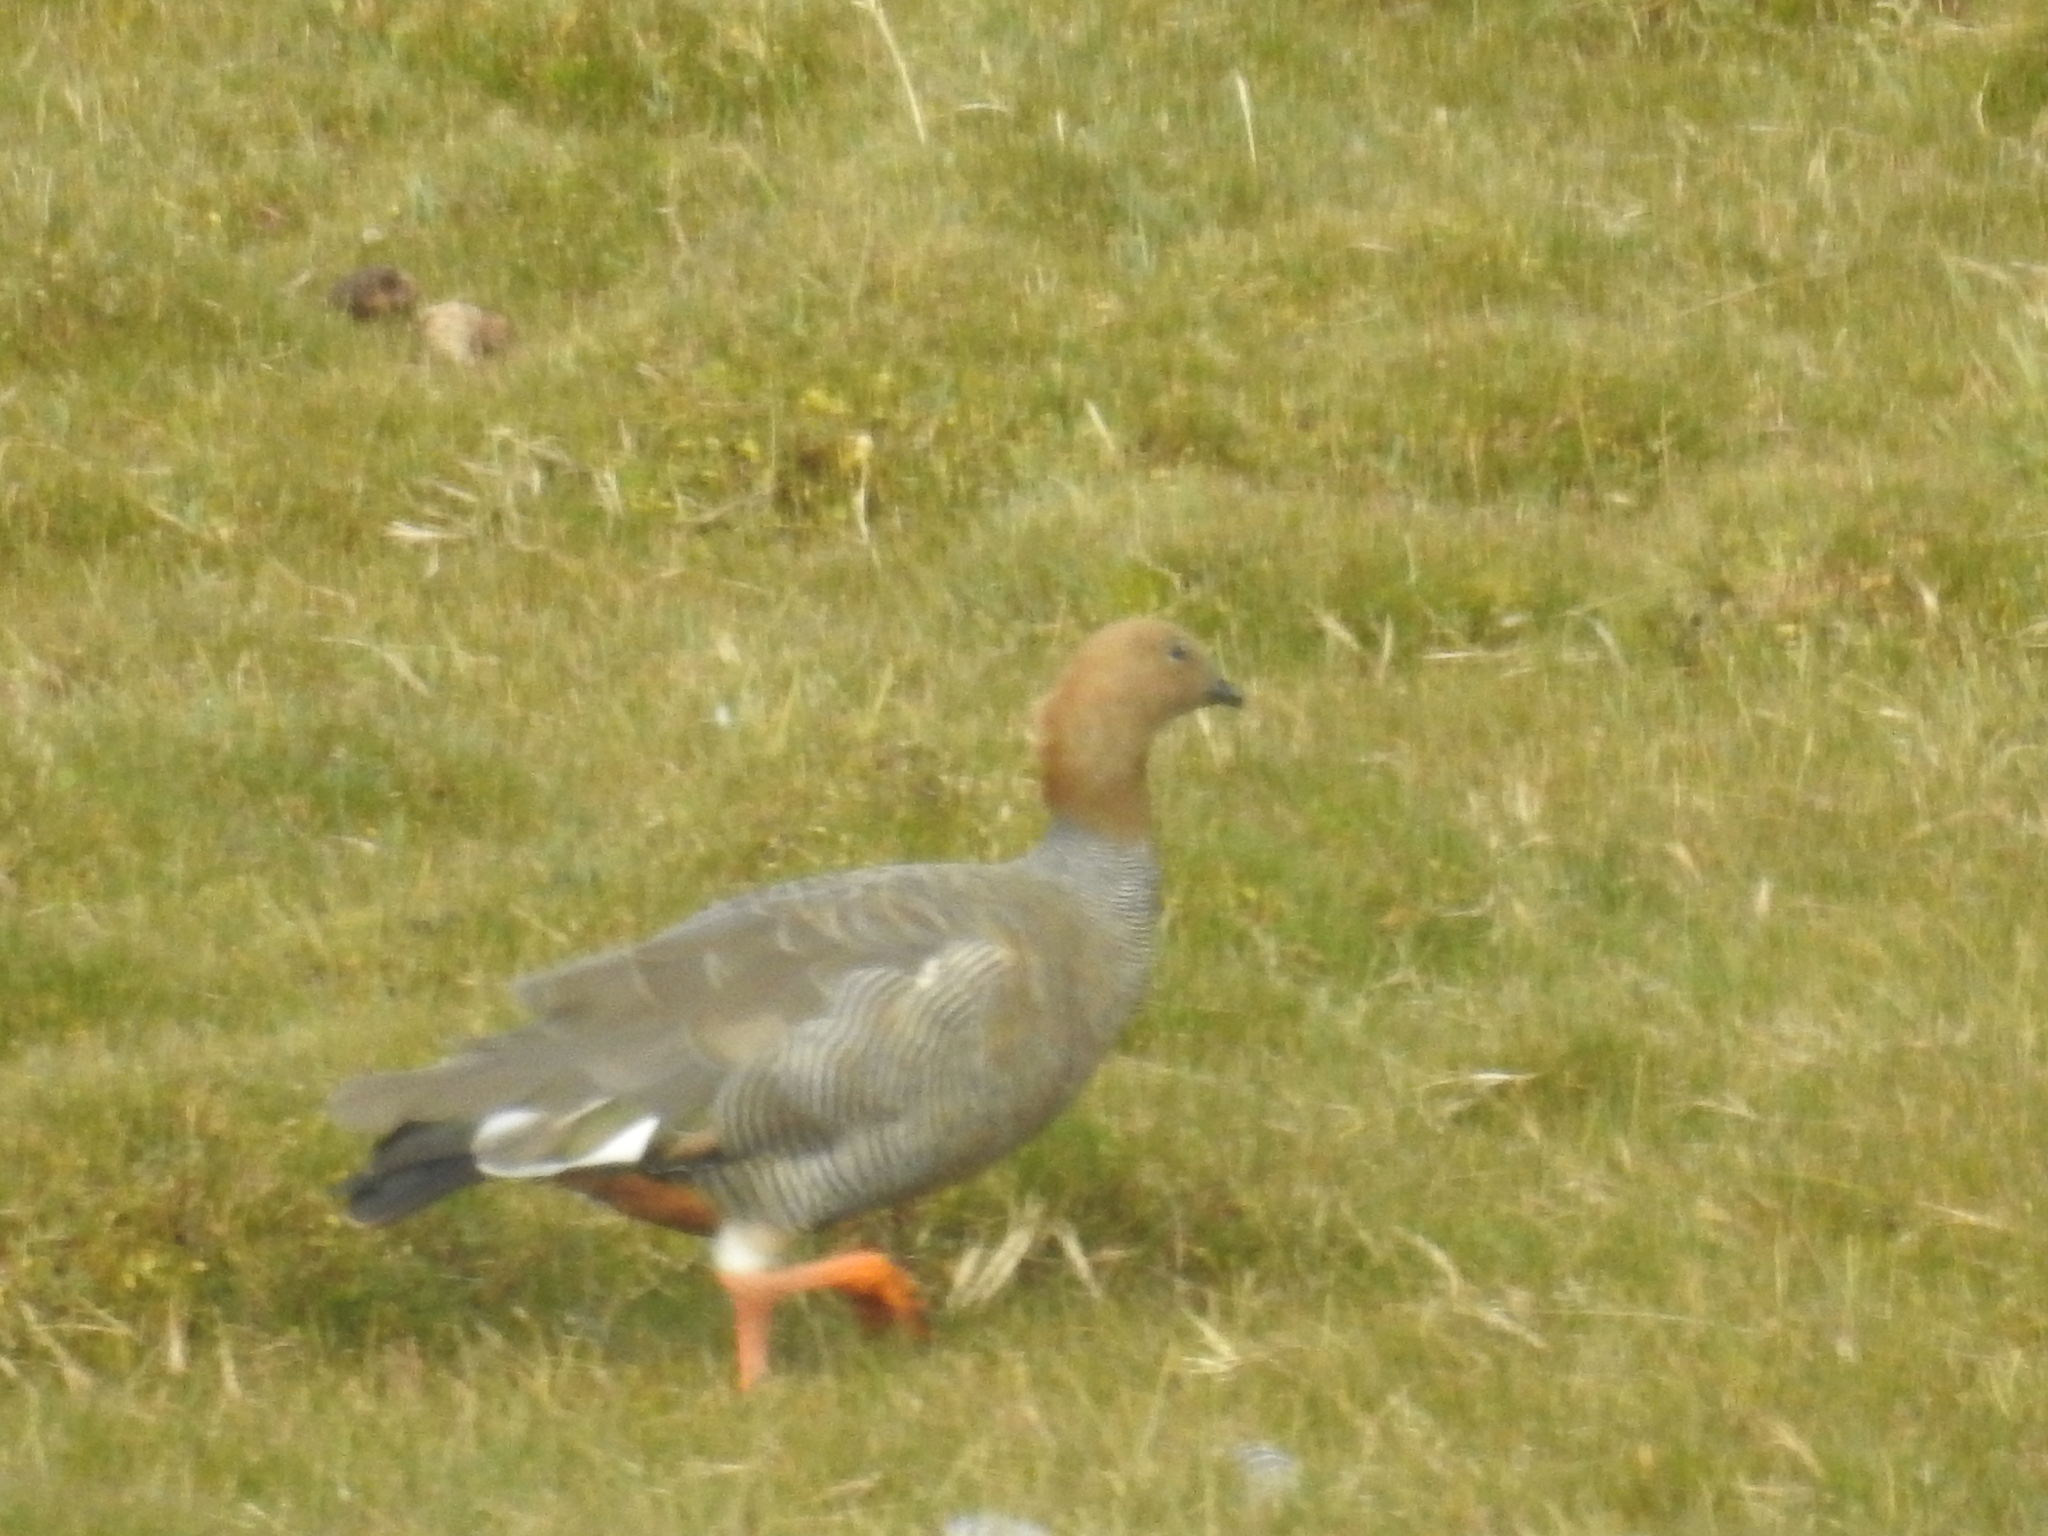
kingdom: Animalia
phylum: Chordata
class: Aves
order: Anseriformes
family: Anatidae
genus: Chloephaga
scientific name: Chloephaga rubidiceps
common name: Ruddy-headed goose
